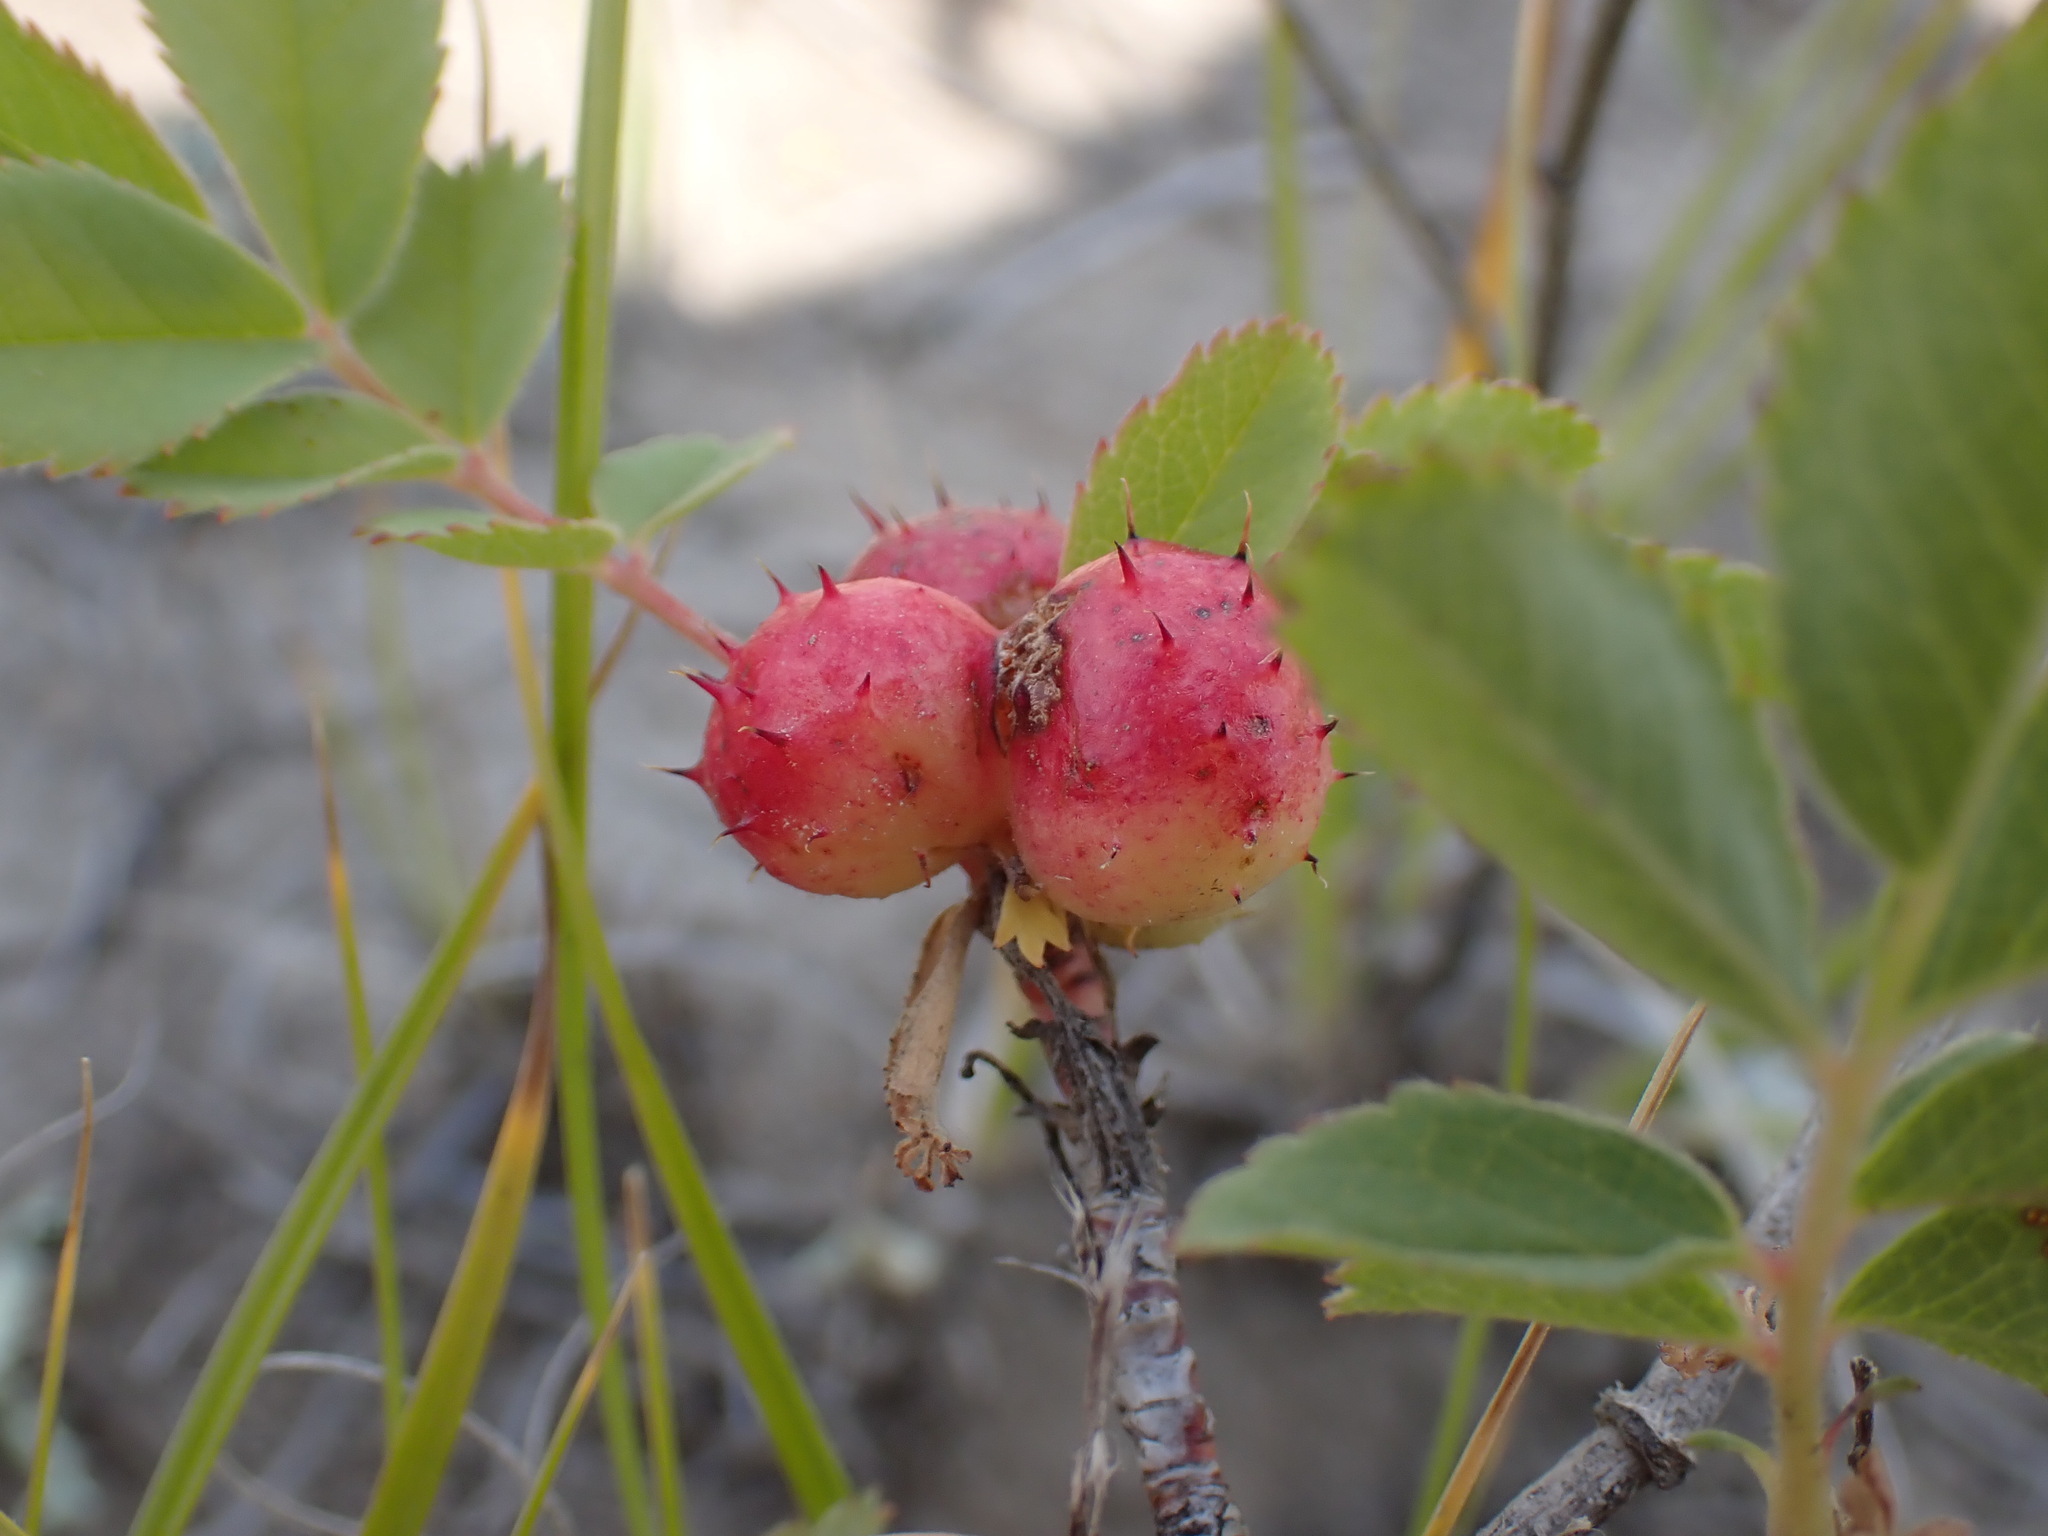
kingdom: Animalia
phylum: Arthropoda
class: Insecta
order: Hymenoptera
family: Cynipidae
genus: Diplolepis
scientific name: Diplolepis polita
